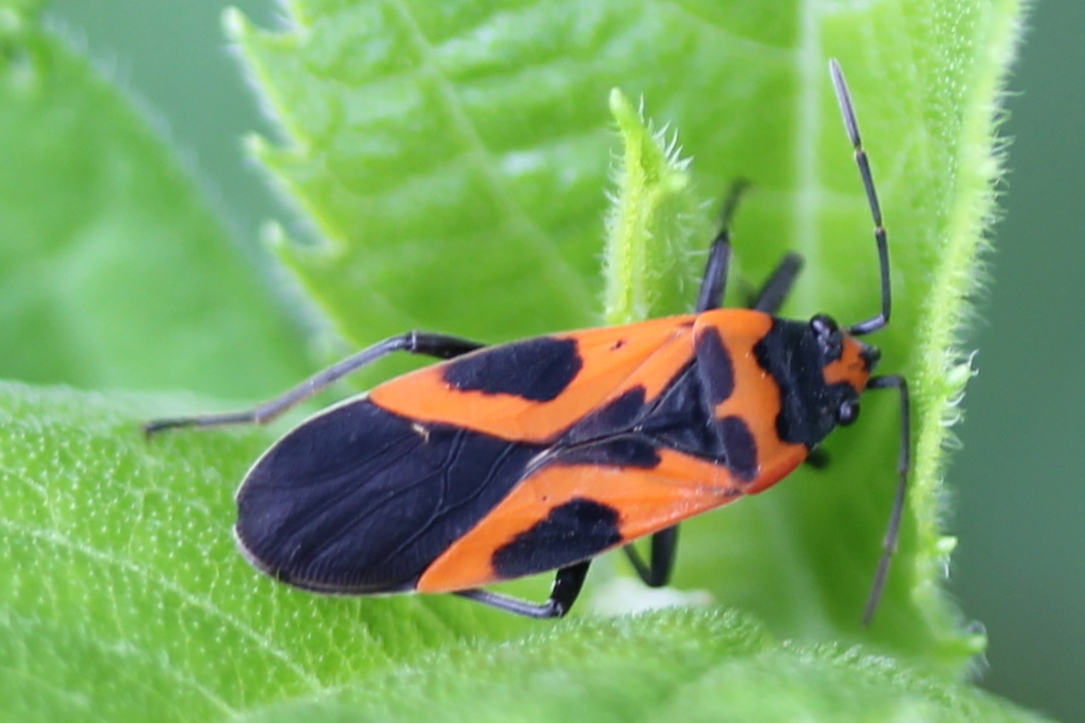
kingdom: Animalia
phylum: Arthropoda
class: Insecta
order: Hemiptera
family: Lygaeidae
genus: Lygaeus
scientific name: Lygaeus turcicus
